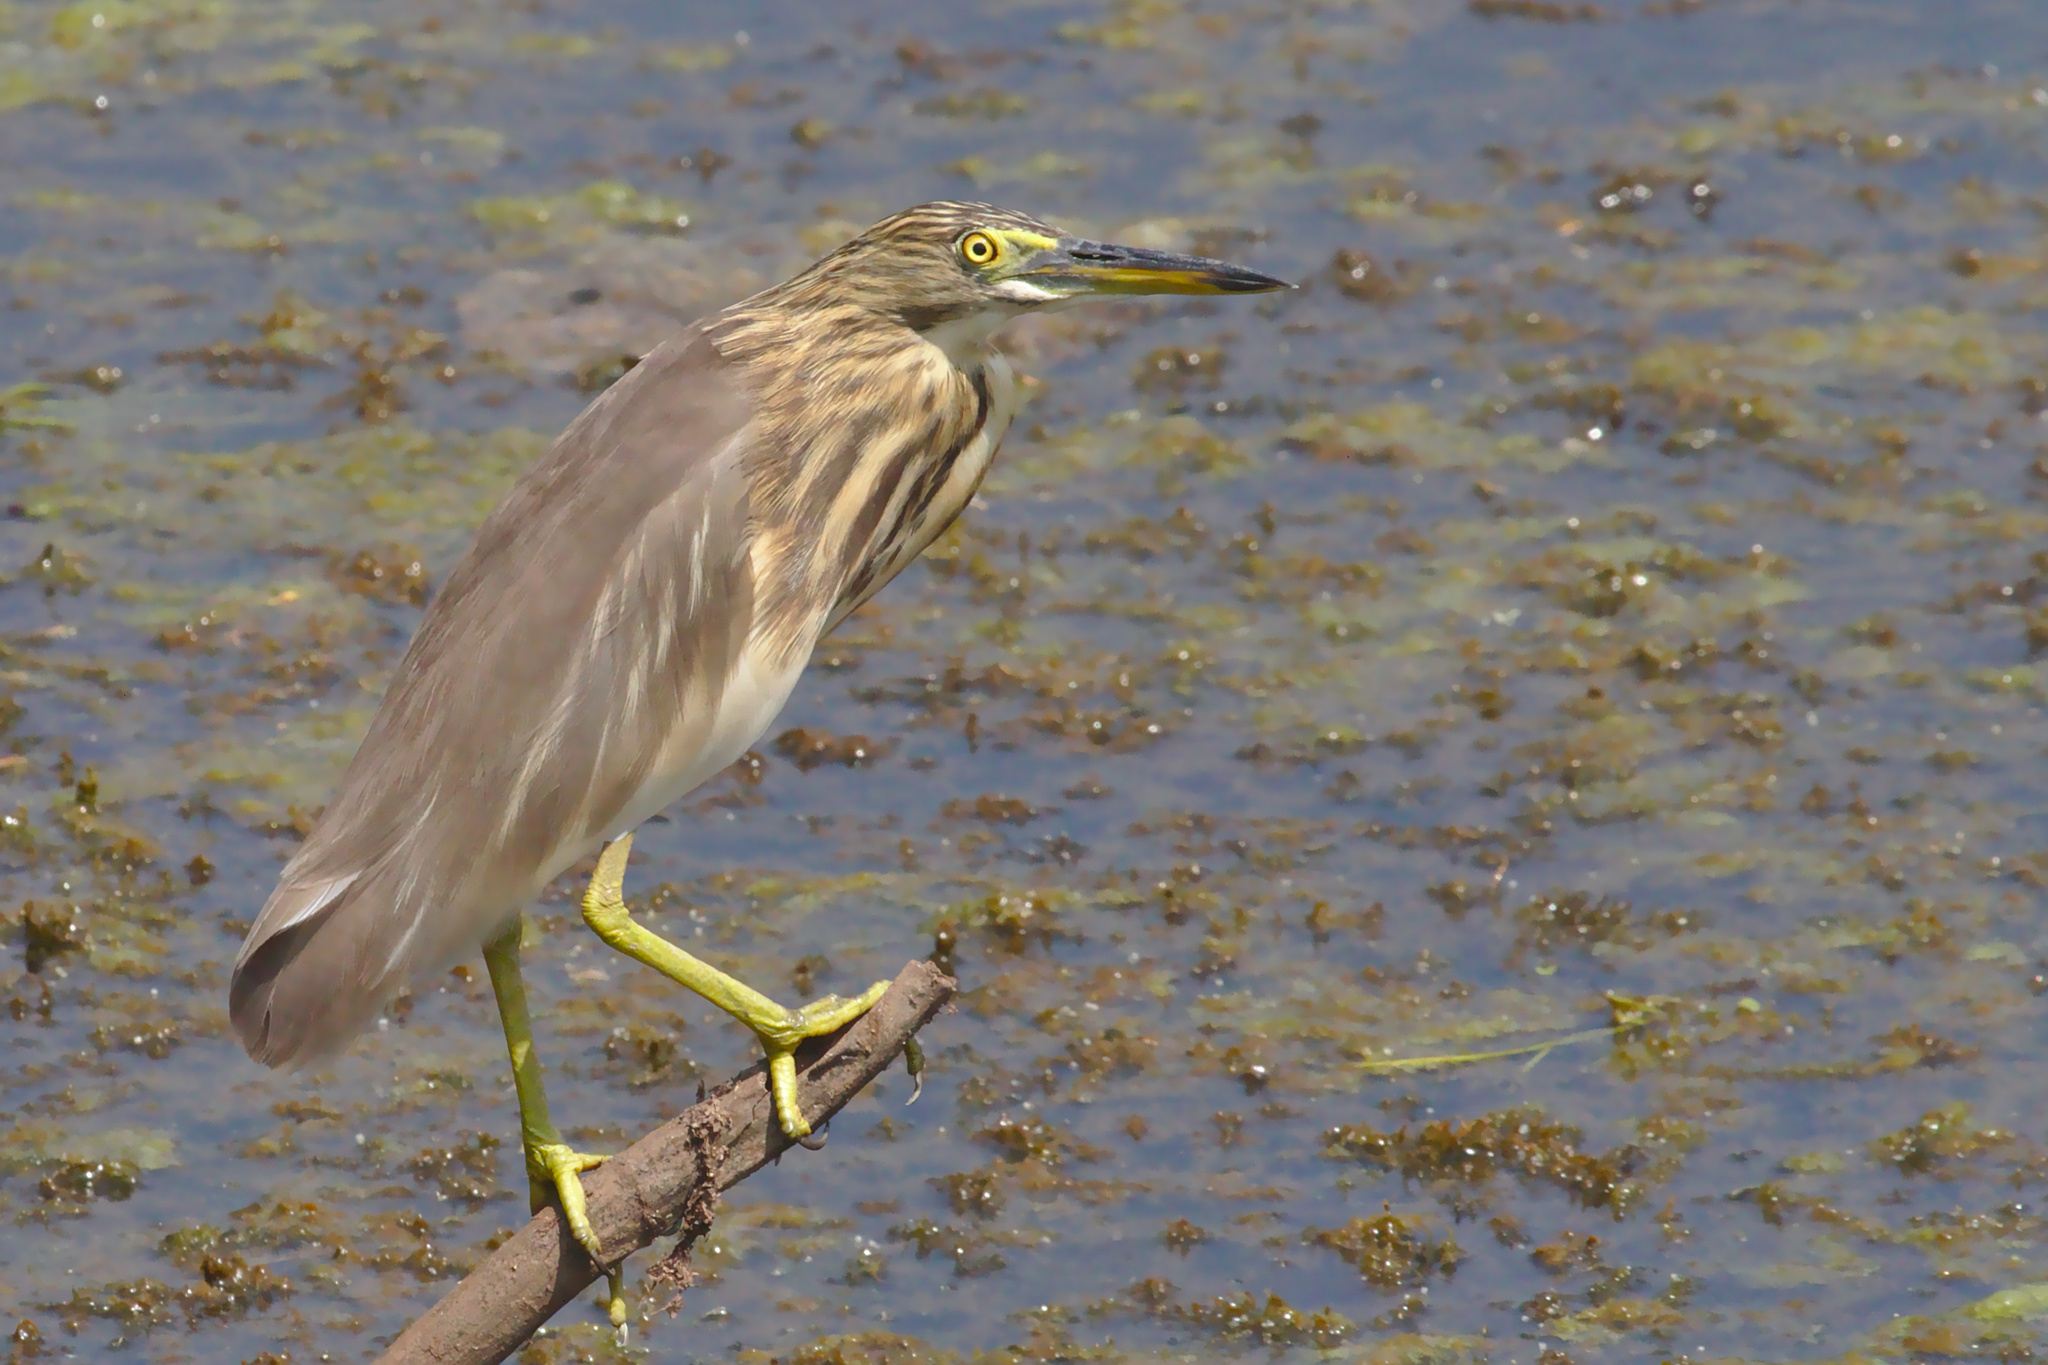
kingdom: Animalia
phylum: Chordata
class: Aves
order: Pelecaniformes
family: Ardeidae
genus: Ardeola
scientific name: Ardeola grayii
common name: Indian pond heron
